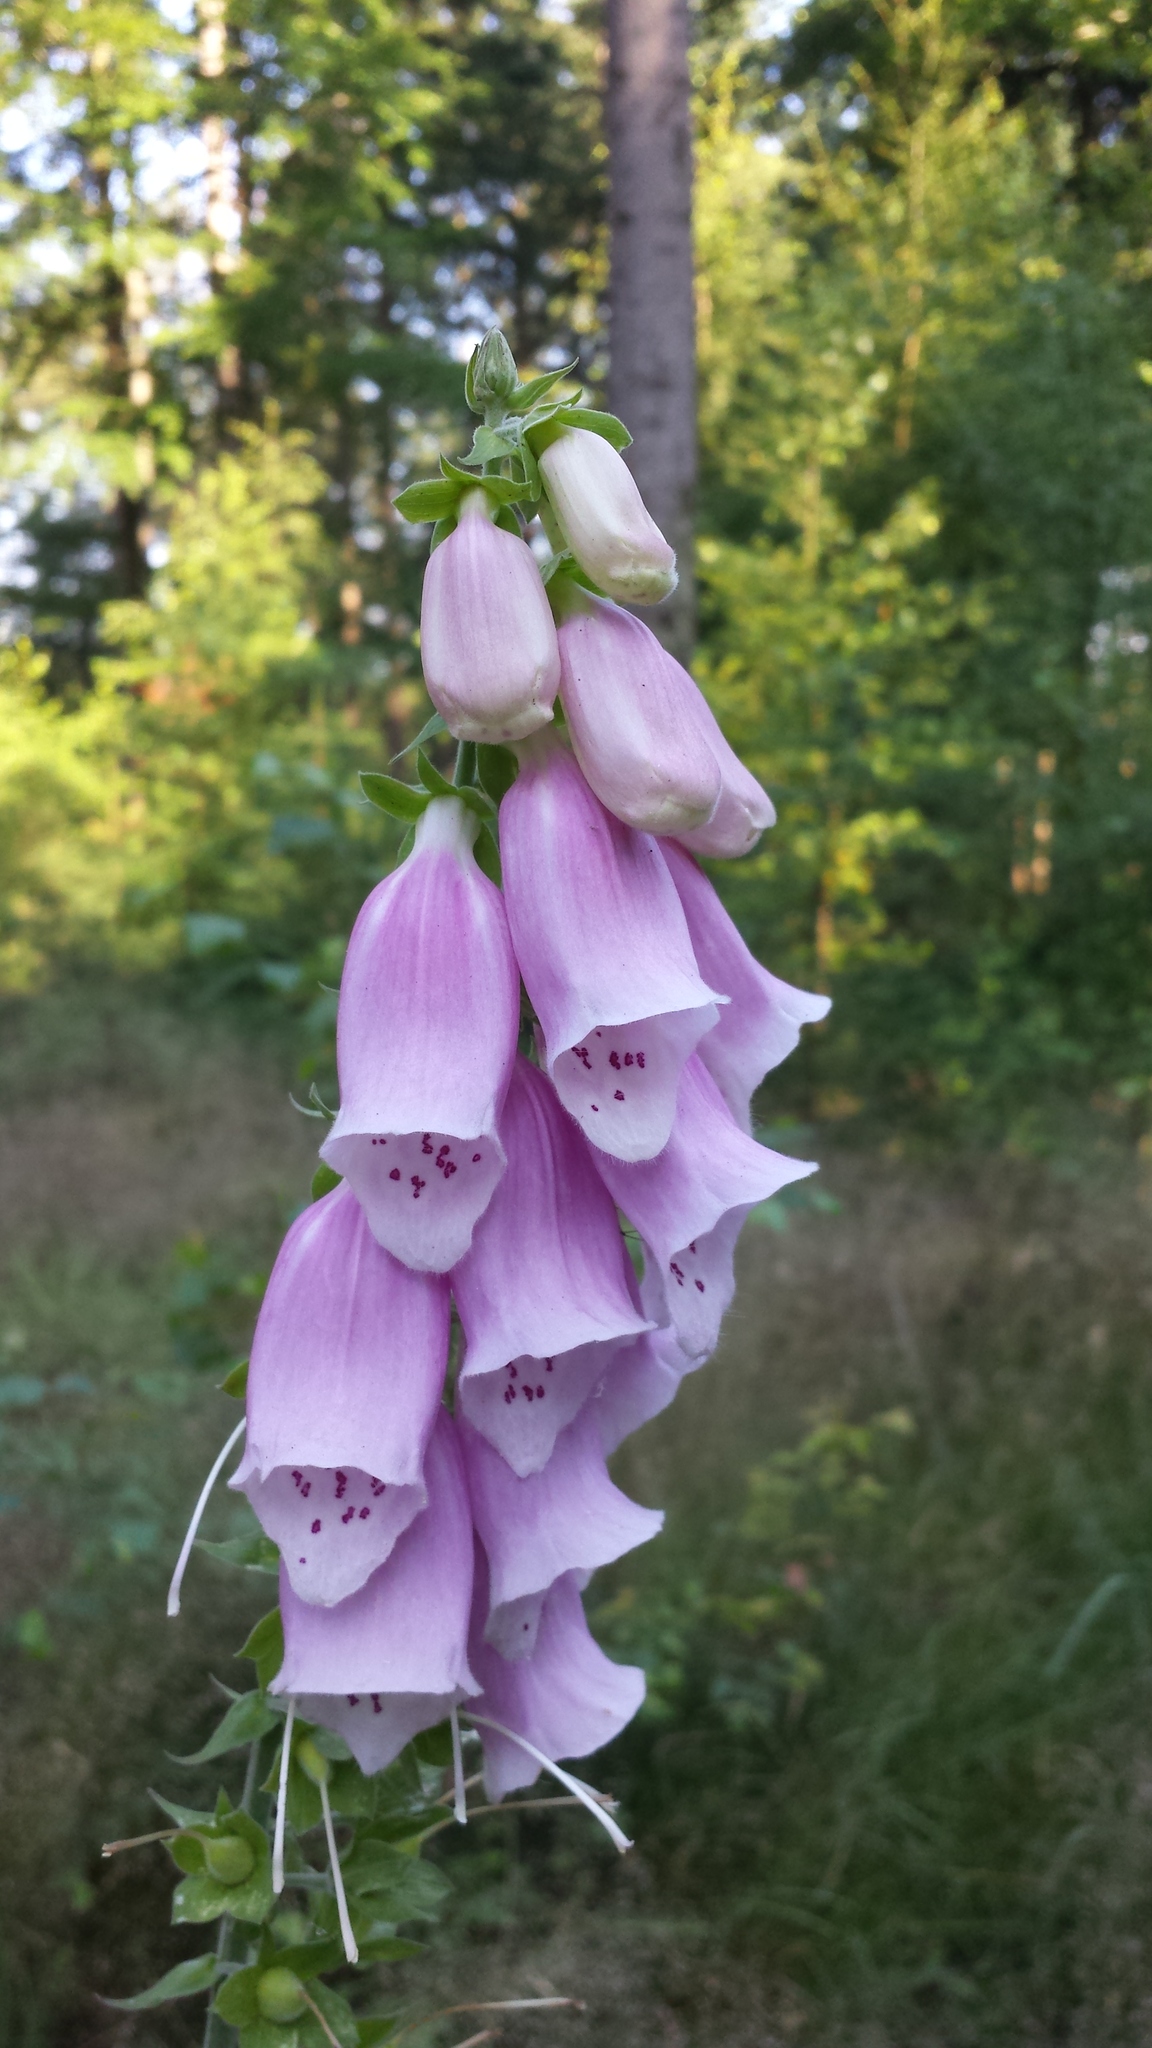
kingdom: Plantae
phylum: Tracheophyta
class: Magnoliopsida
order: Lamiales
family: Plantaginaceae
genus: Digitalis
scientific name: Digitalis purpurea
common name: Foxglove
